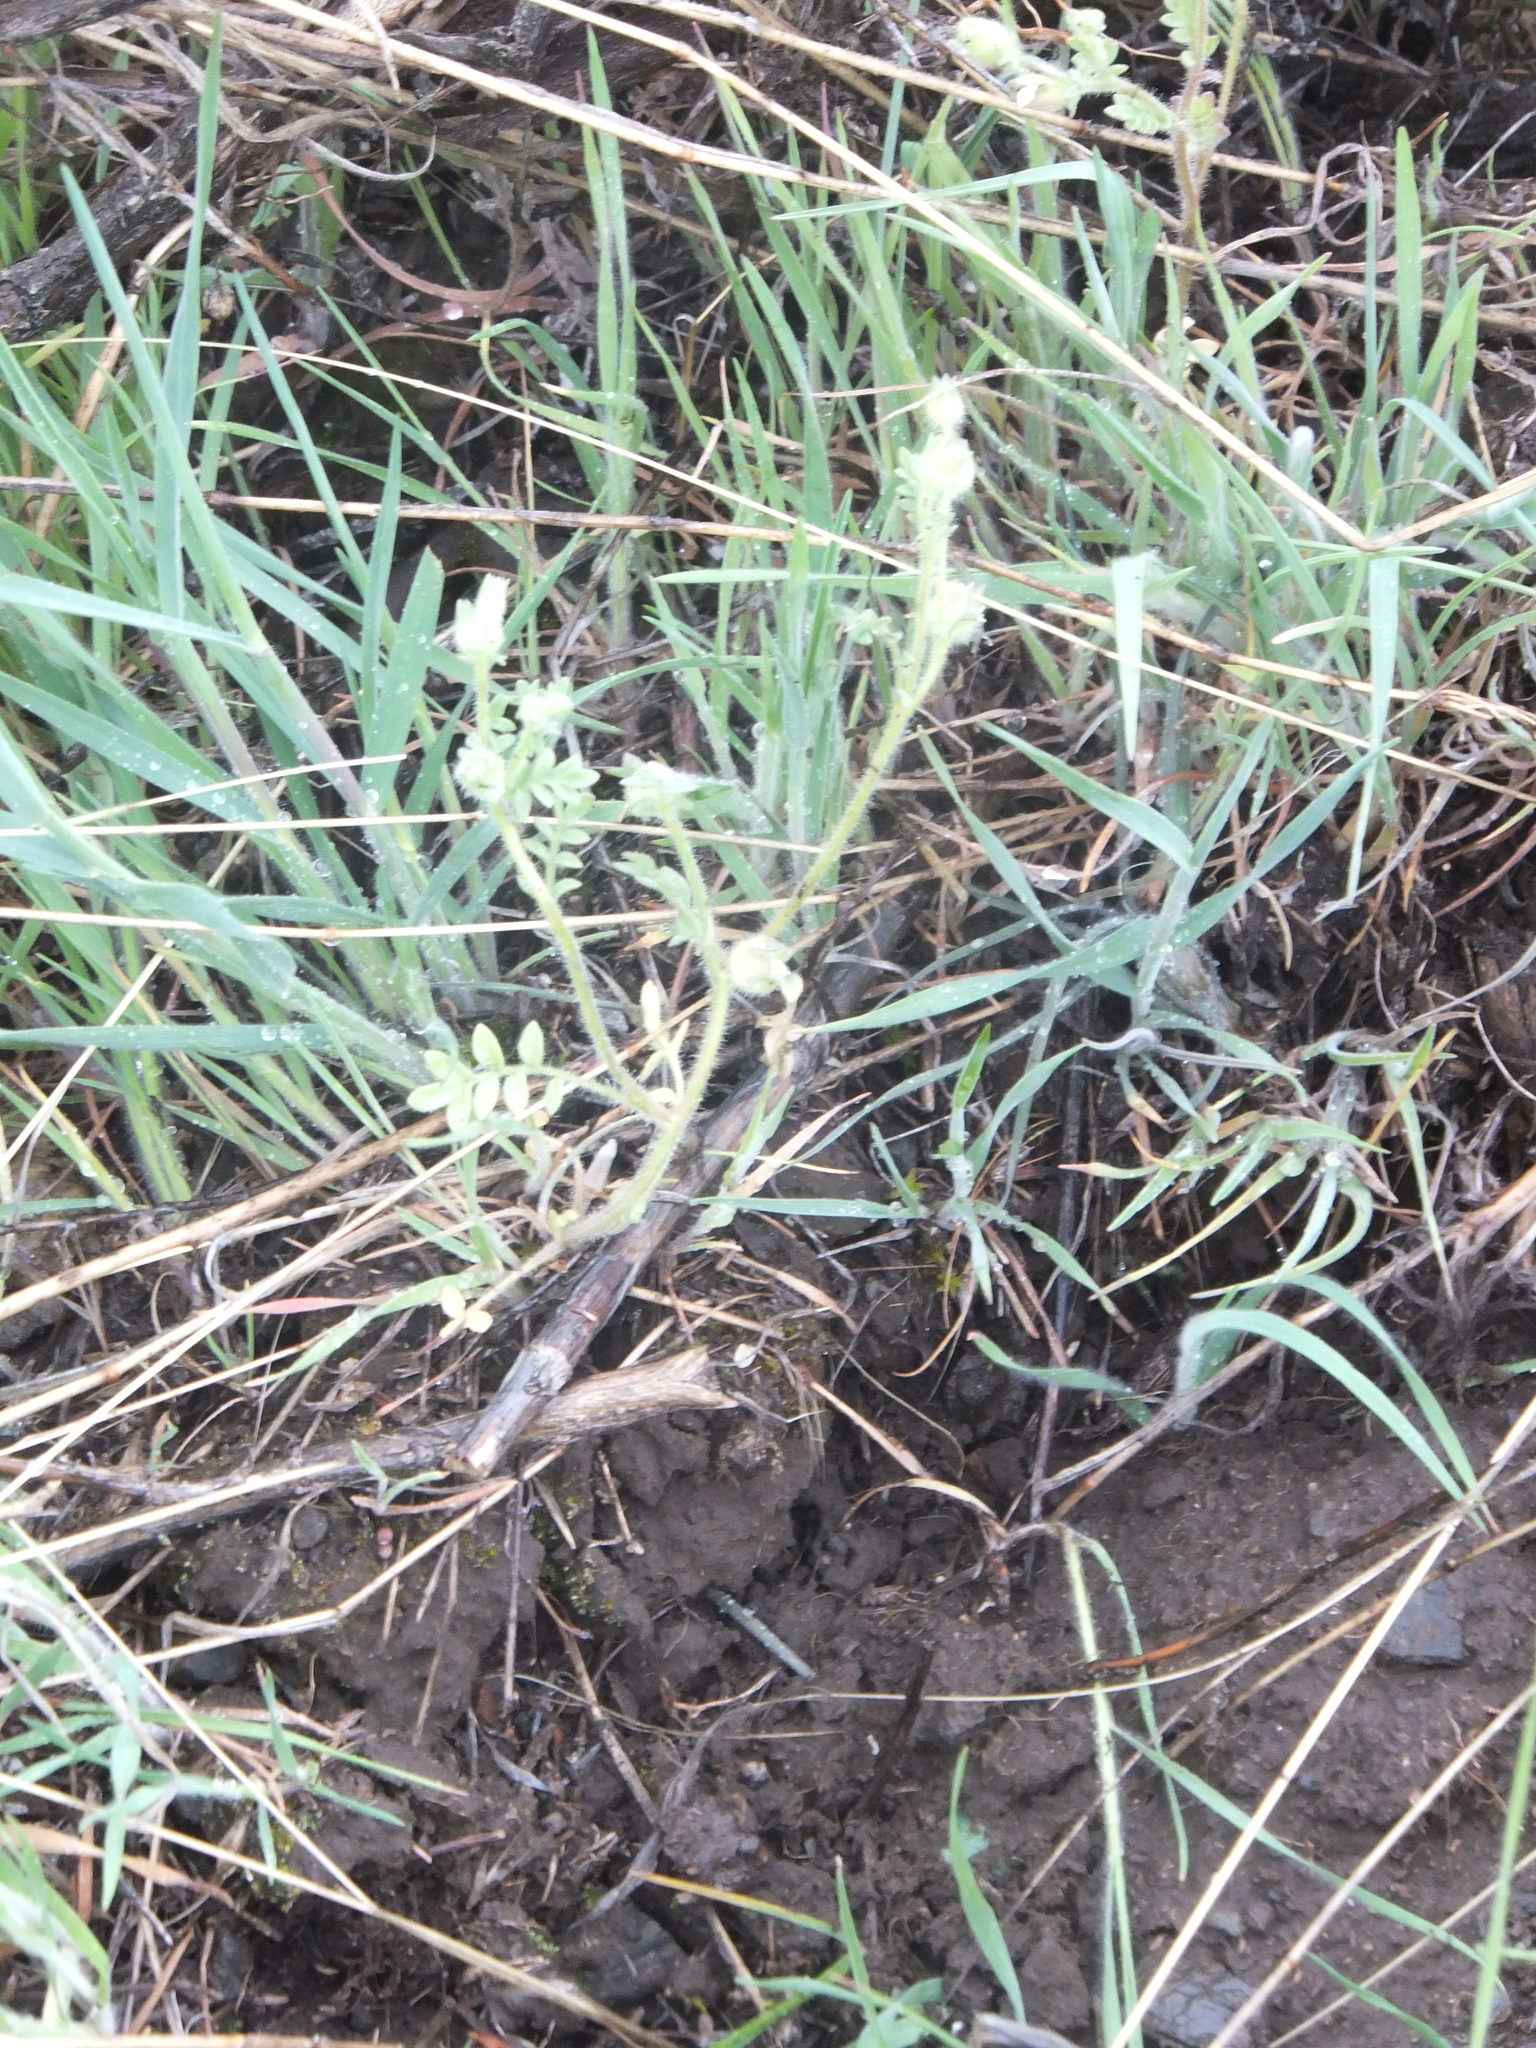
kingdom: Plantae
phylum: Tracheophyta
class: Magnoliopsida
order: Ericales
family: Polemoniaceae
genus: Polemonium
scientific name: Polemonium micranthum
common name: Annual jacob's-ladder
